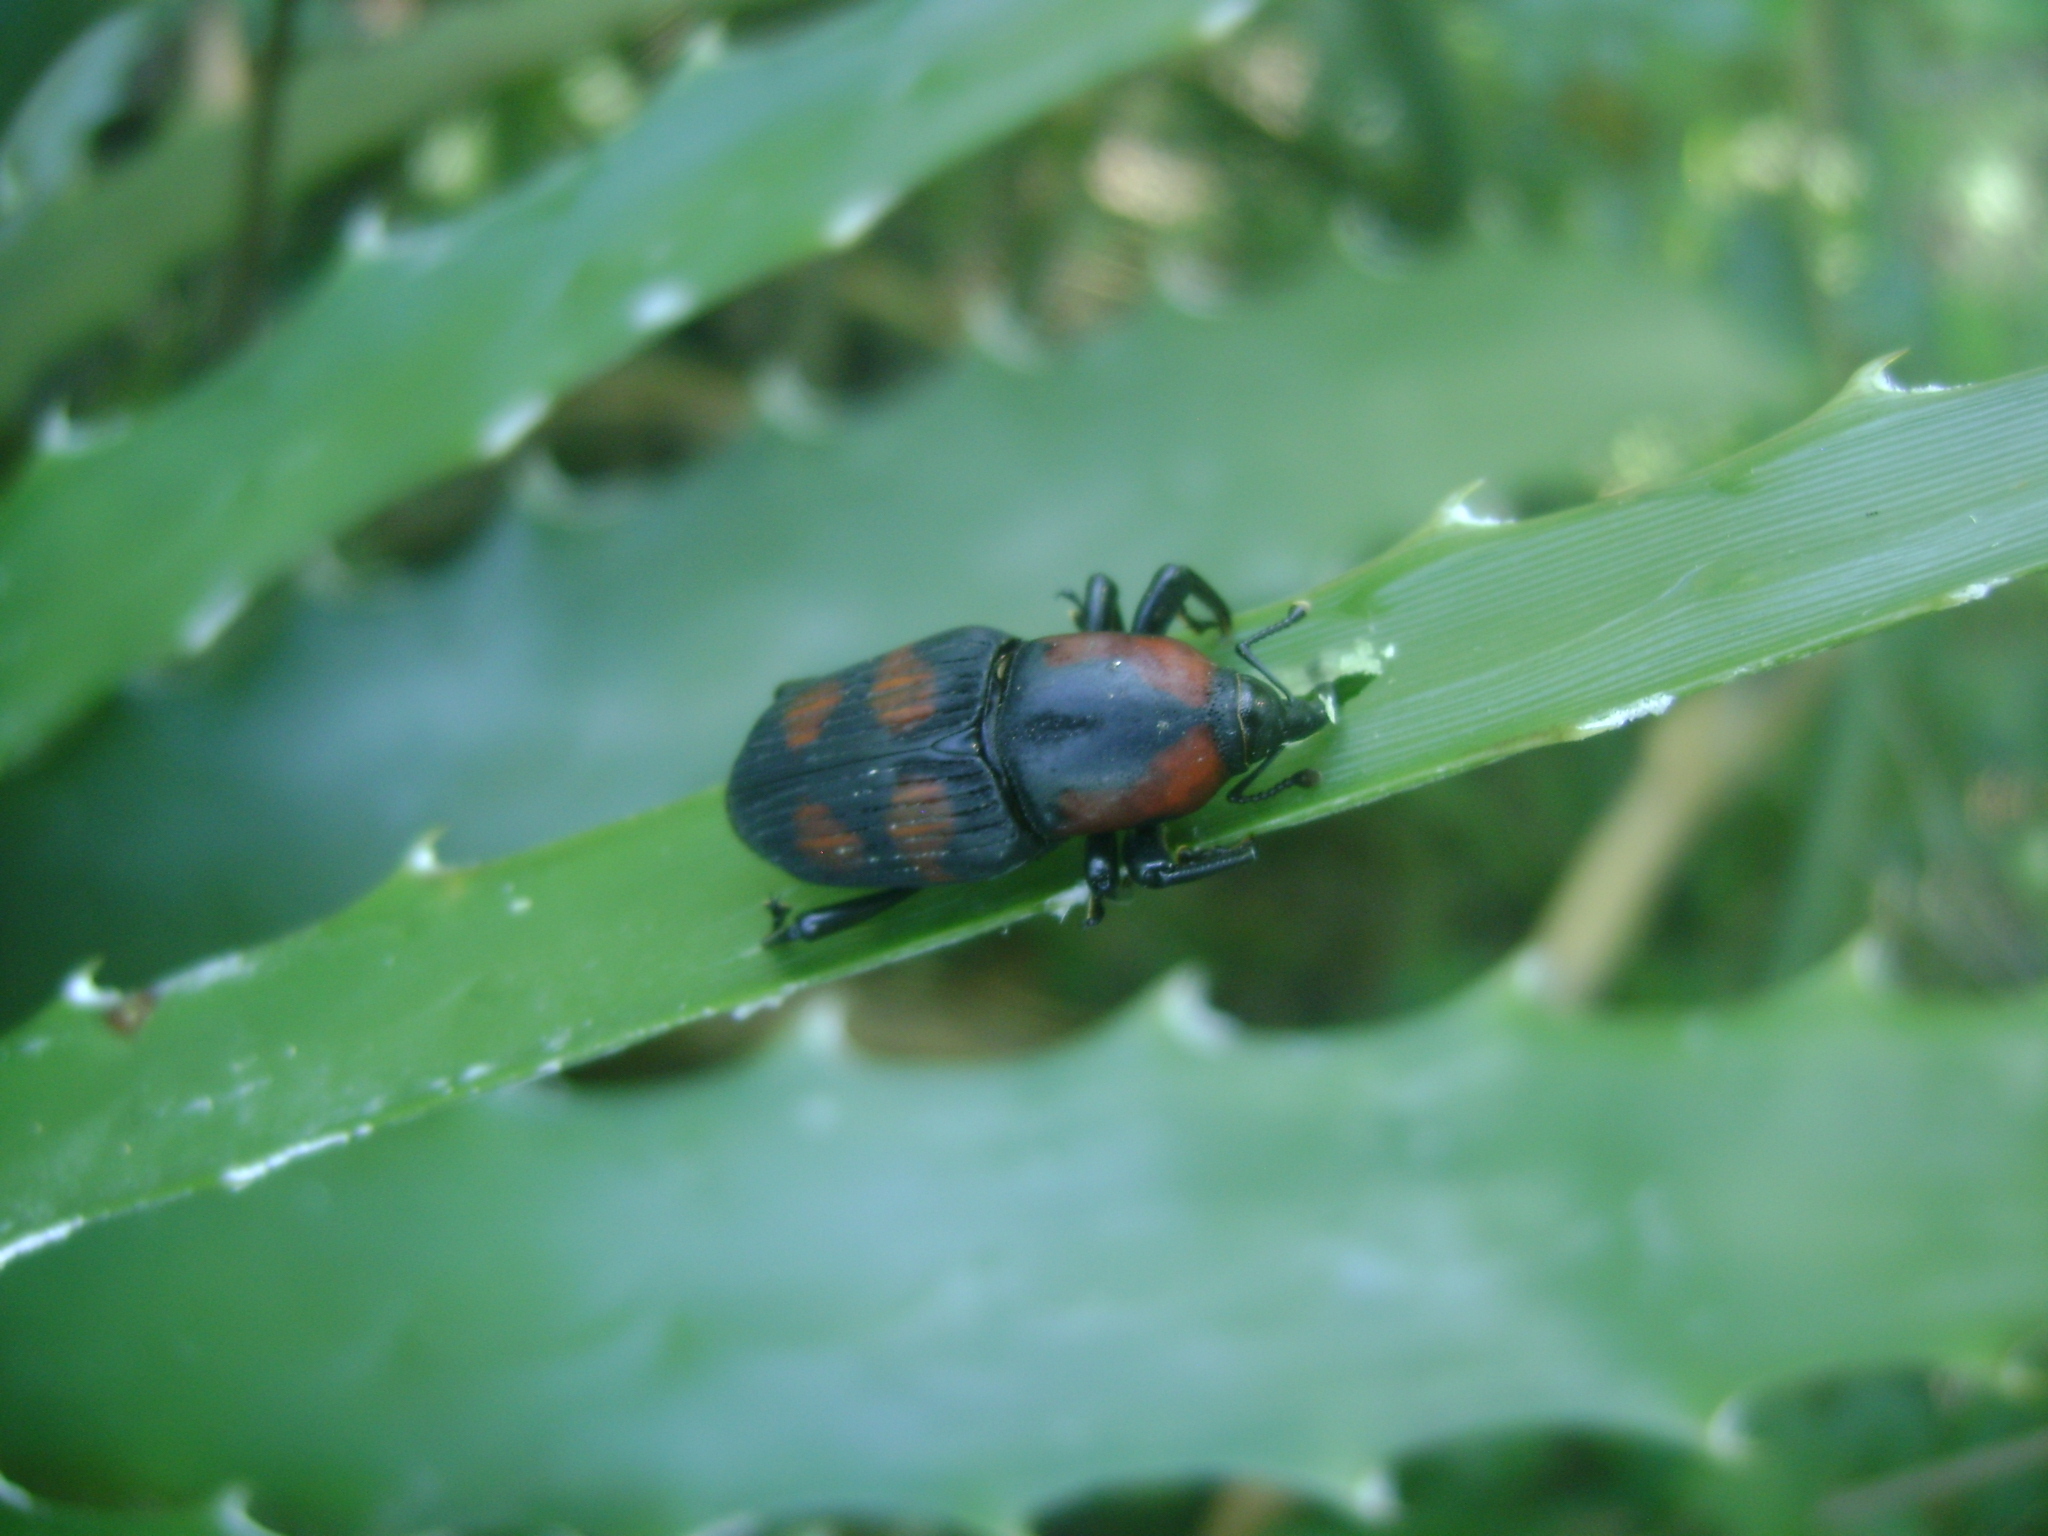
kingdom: Animalia
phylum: Arthropoda
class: Insecta
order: Coleoptera
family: Dryophthoridae
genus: Metamasius
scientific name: Metamasius ciliatus
